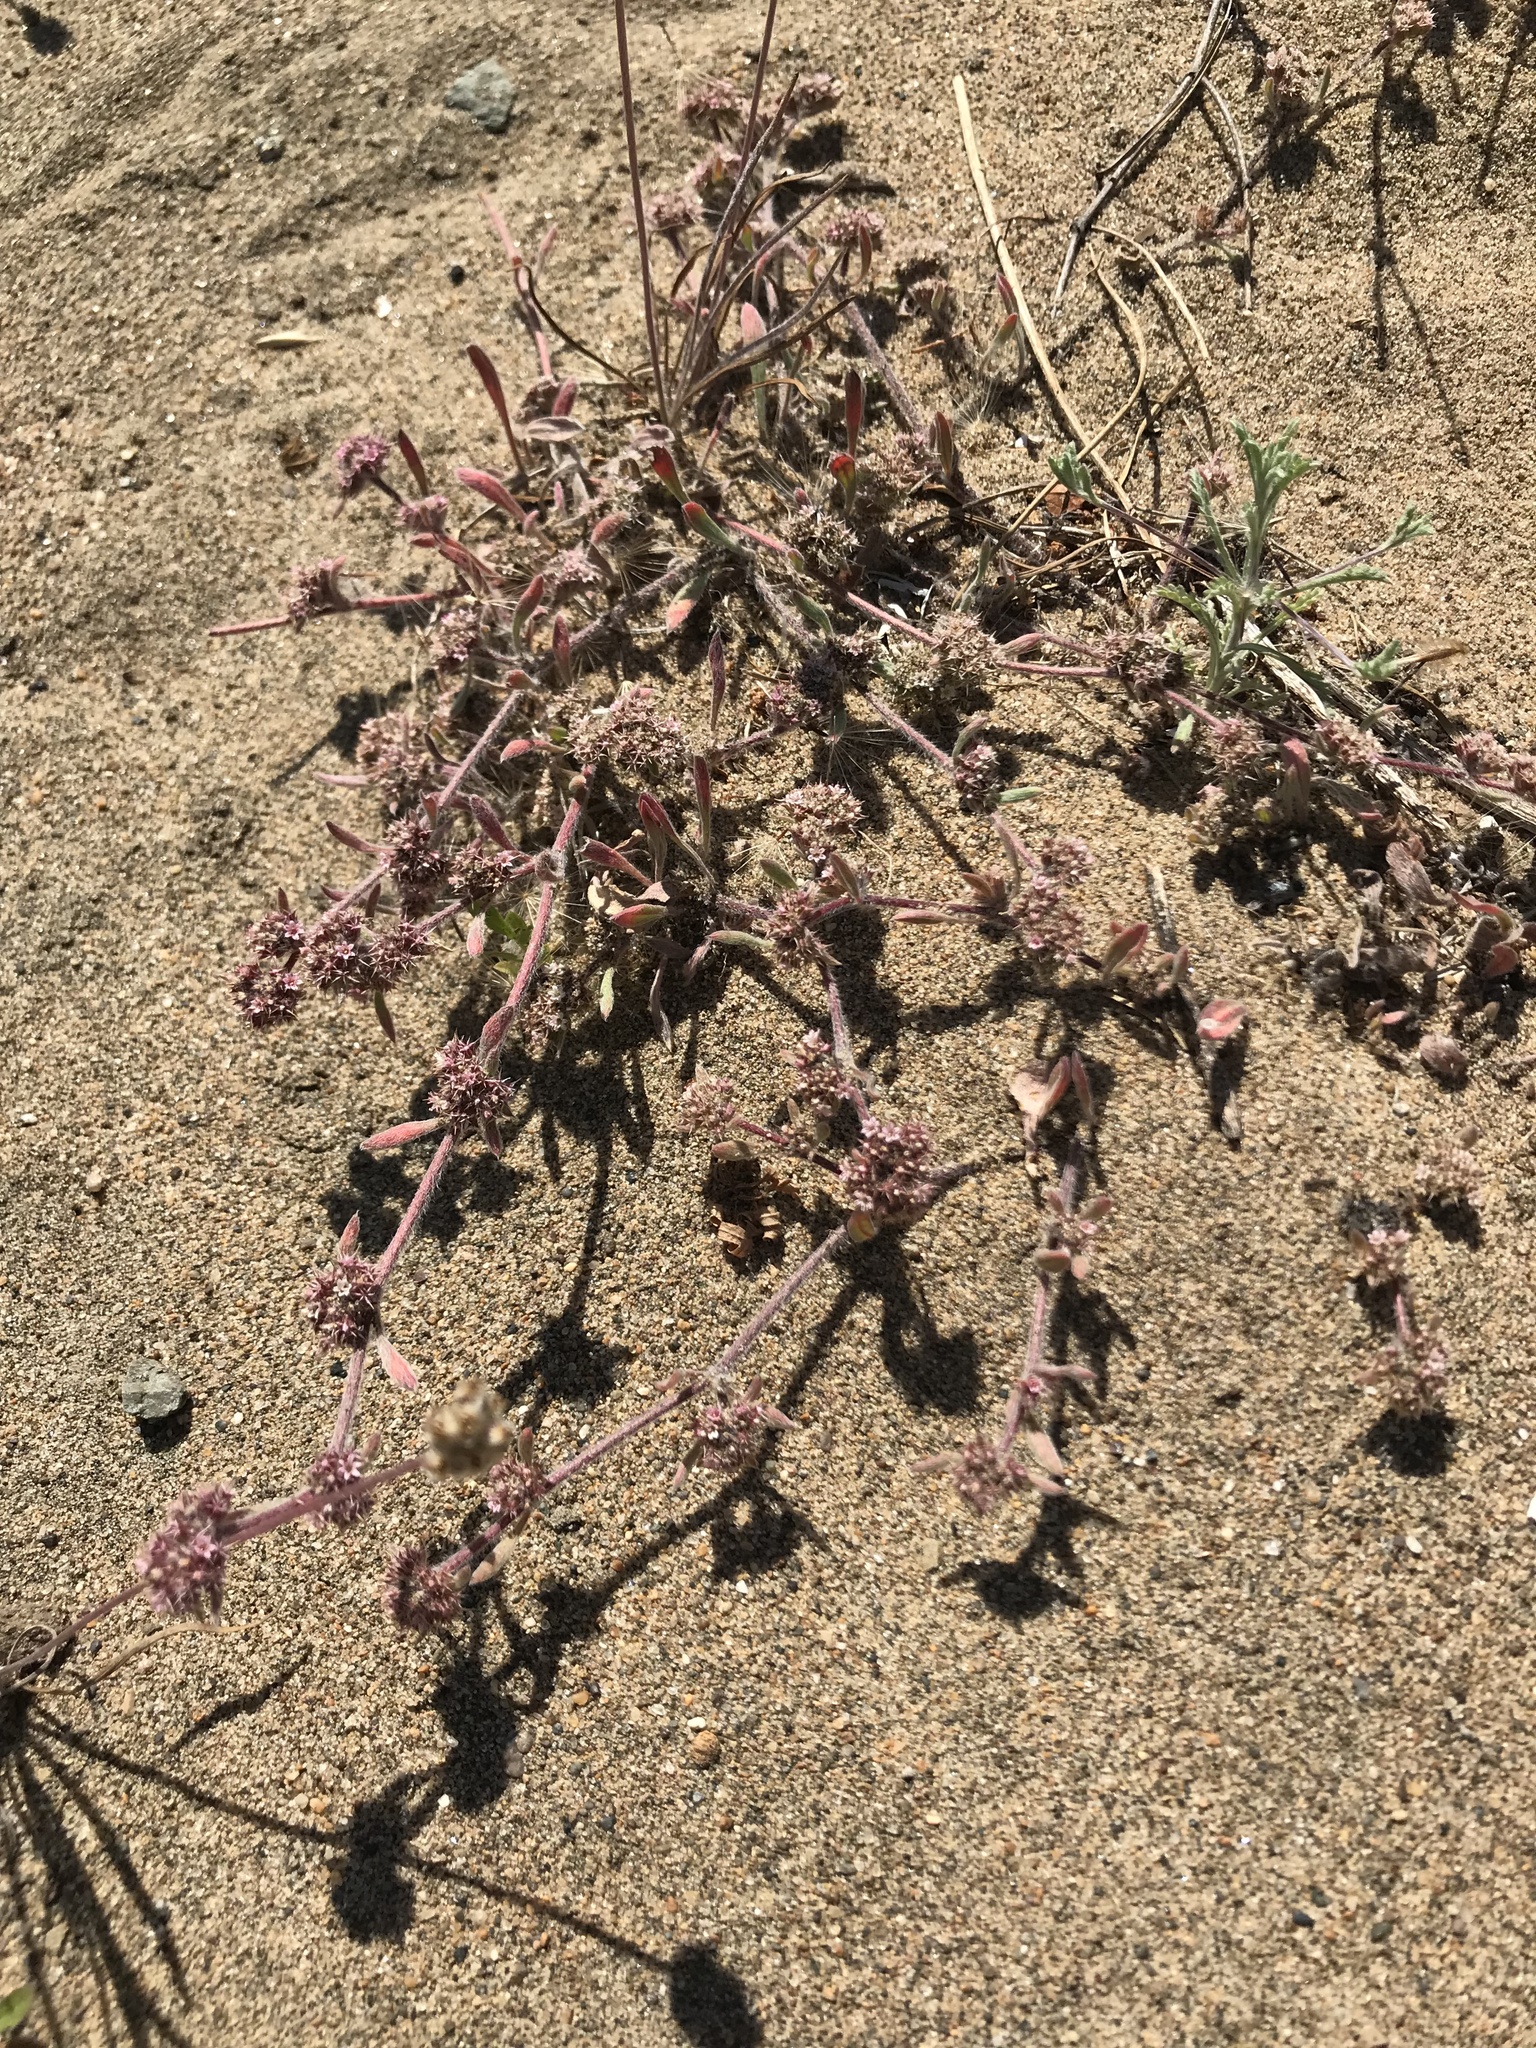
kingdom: Plantae
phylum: Tracheophyta
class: Magnoliopsida
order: Caryophyllales
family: Polygonaceae
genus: Chorizanthe
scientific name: Chorizanthe cuspidata
